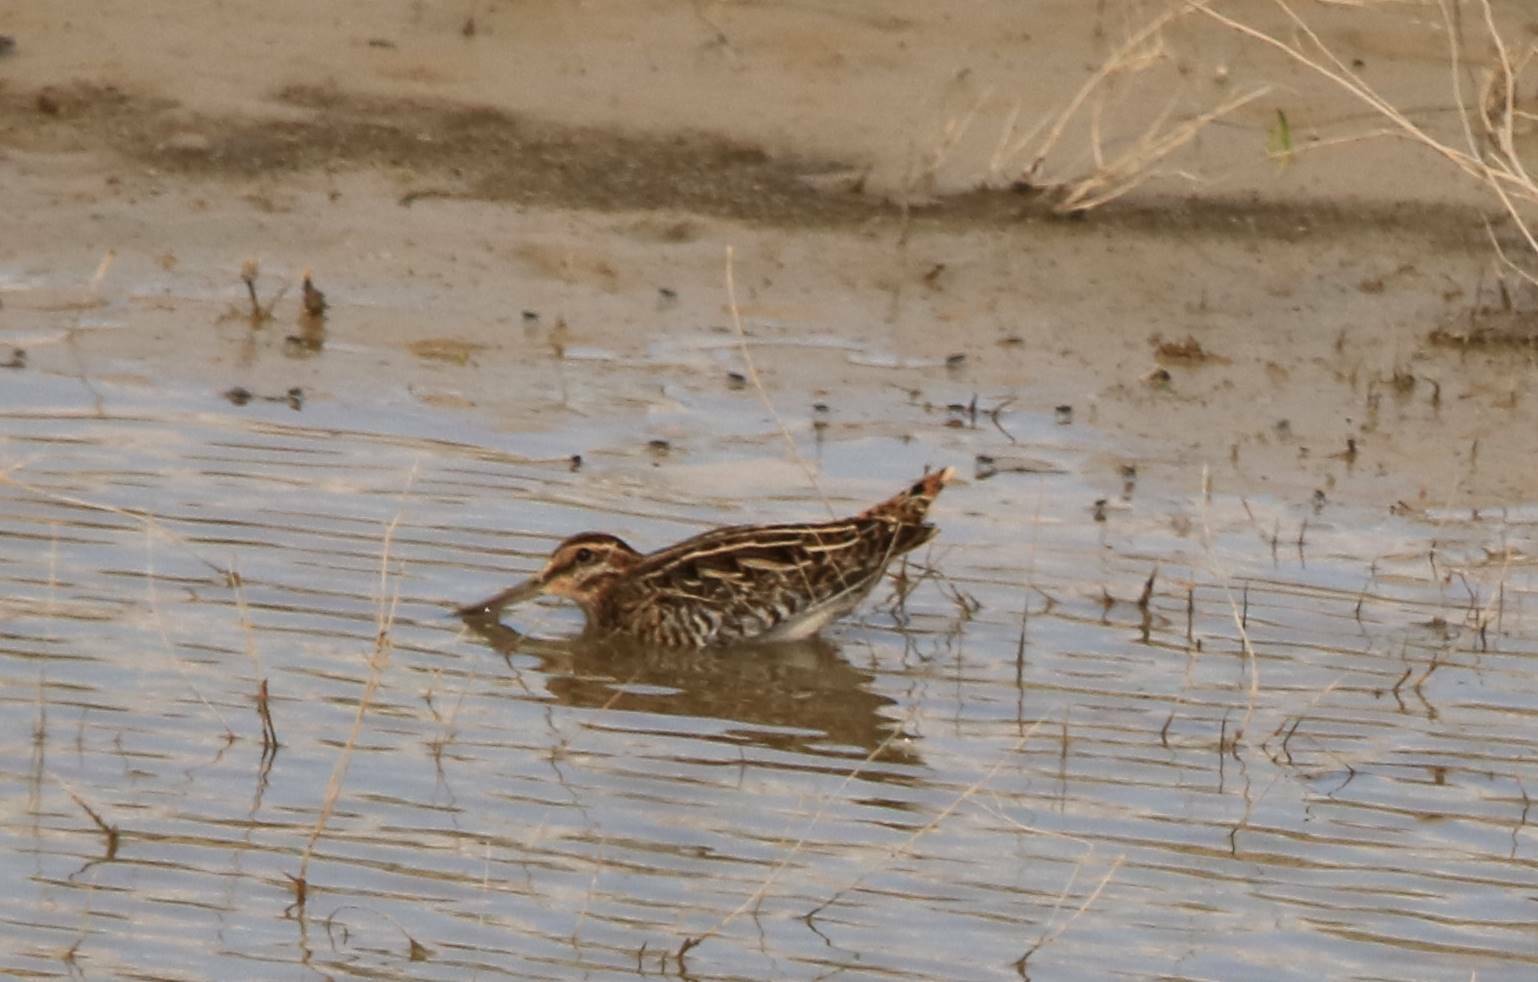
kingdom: Animalia
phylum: Chordata
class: Aves
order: Charadriiformes
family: Scolopacidae
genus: Gallinago
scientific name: Gallinago gallinago
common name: Common snipe
